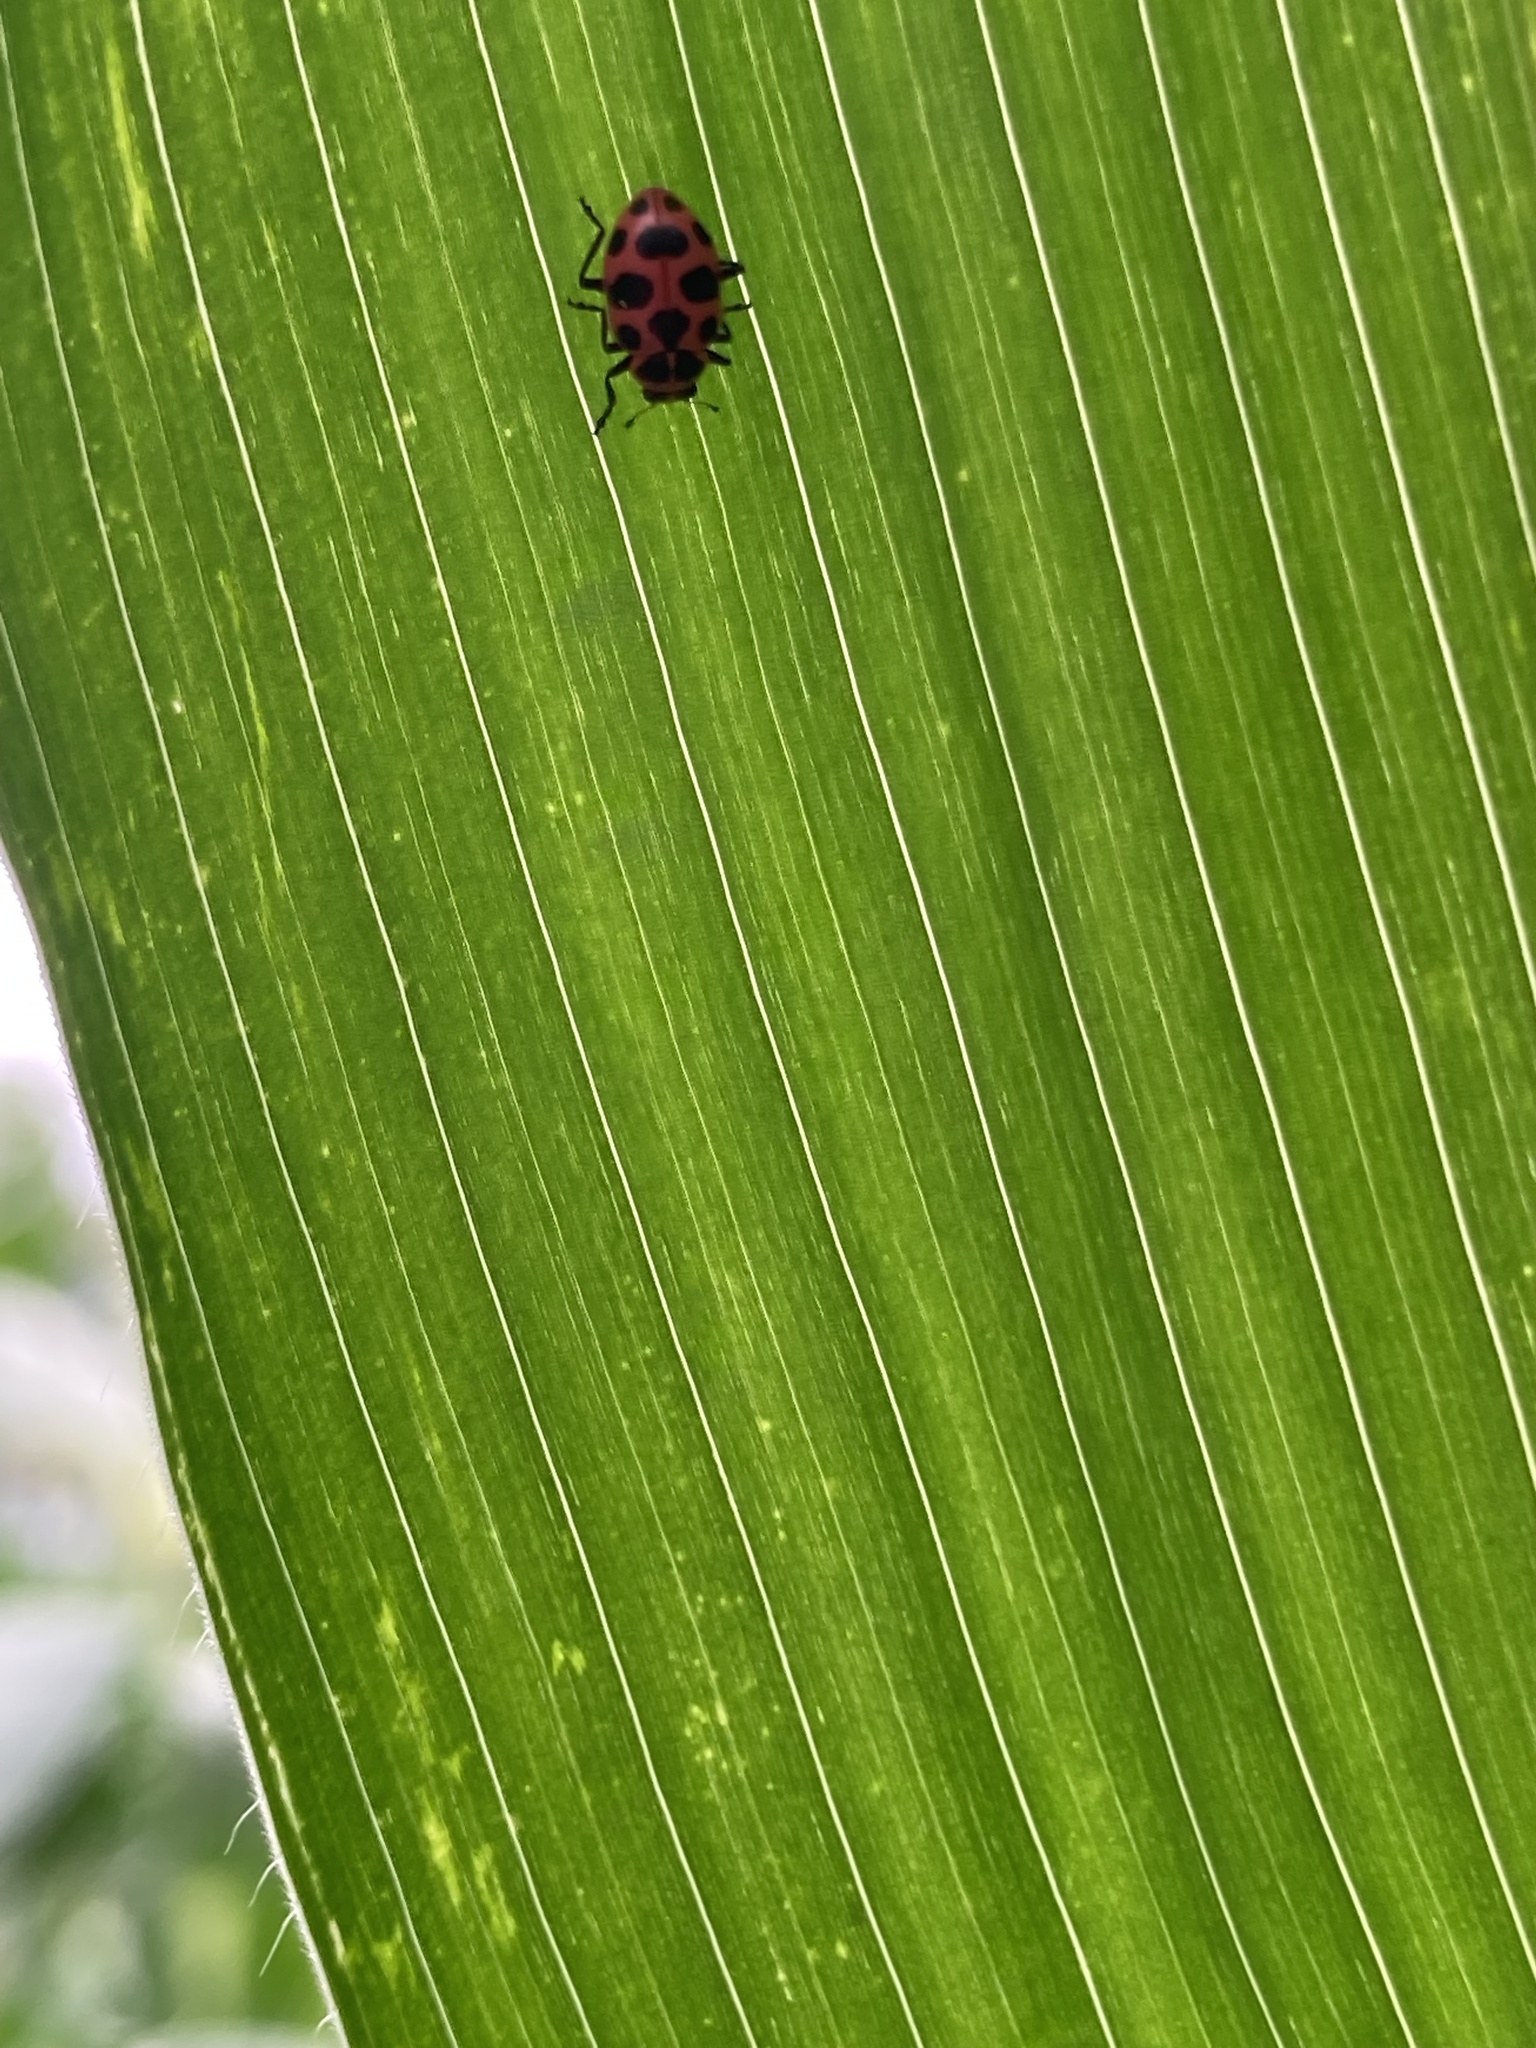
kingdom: Animalia
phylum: Arthropoda
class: Insecta
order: Coleoptera
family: Coccinellidae
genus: Coleomegilla
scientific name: Coleomegilla maculata
